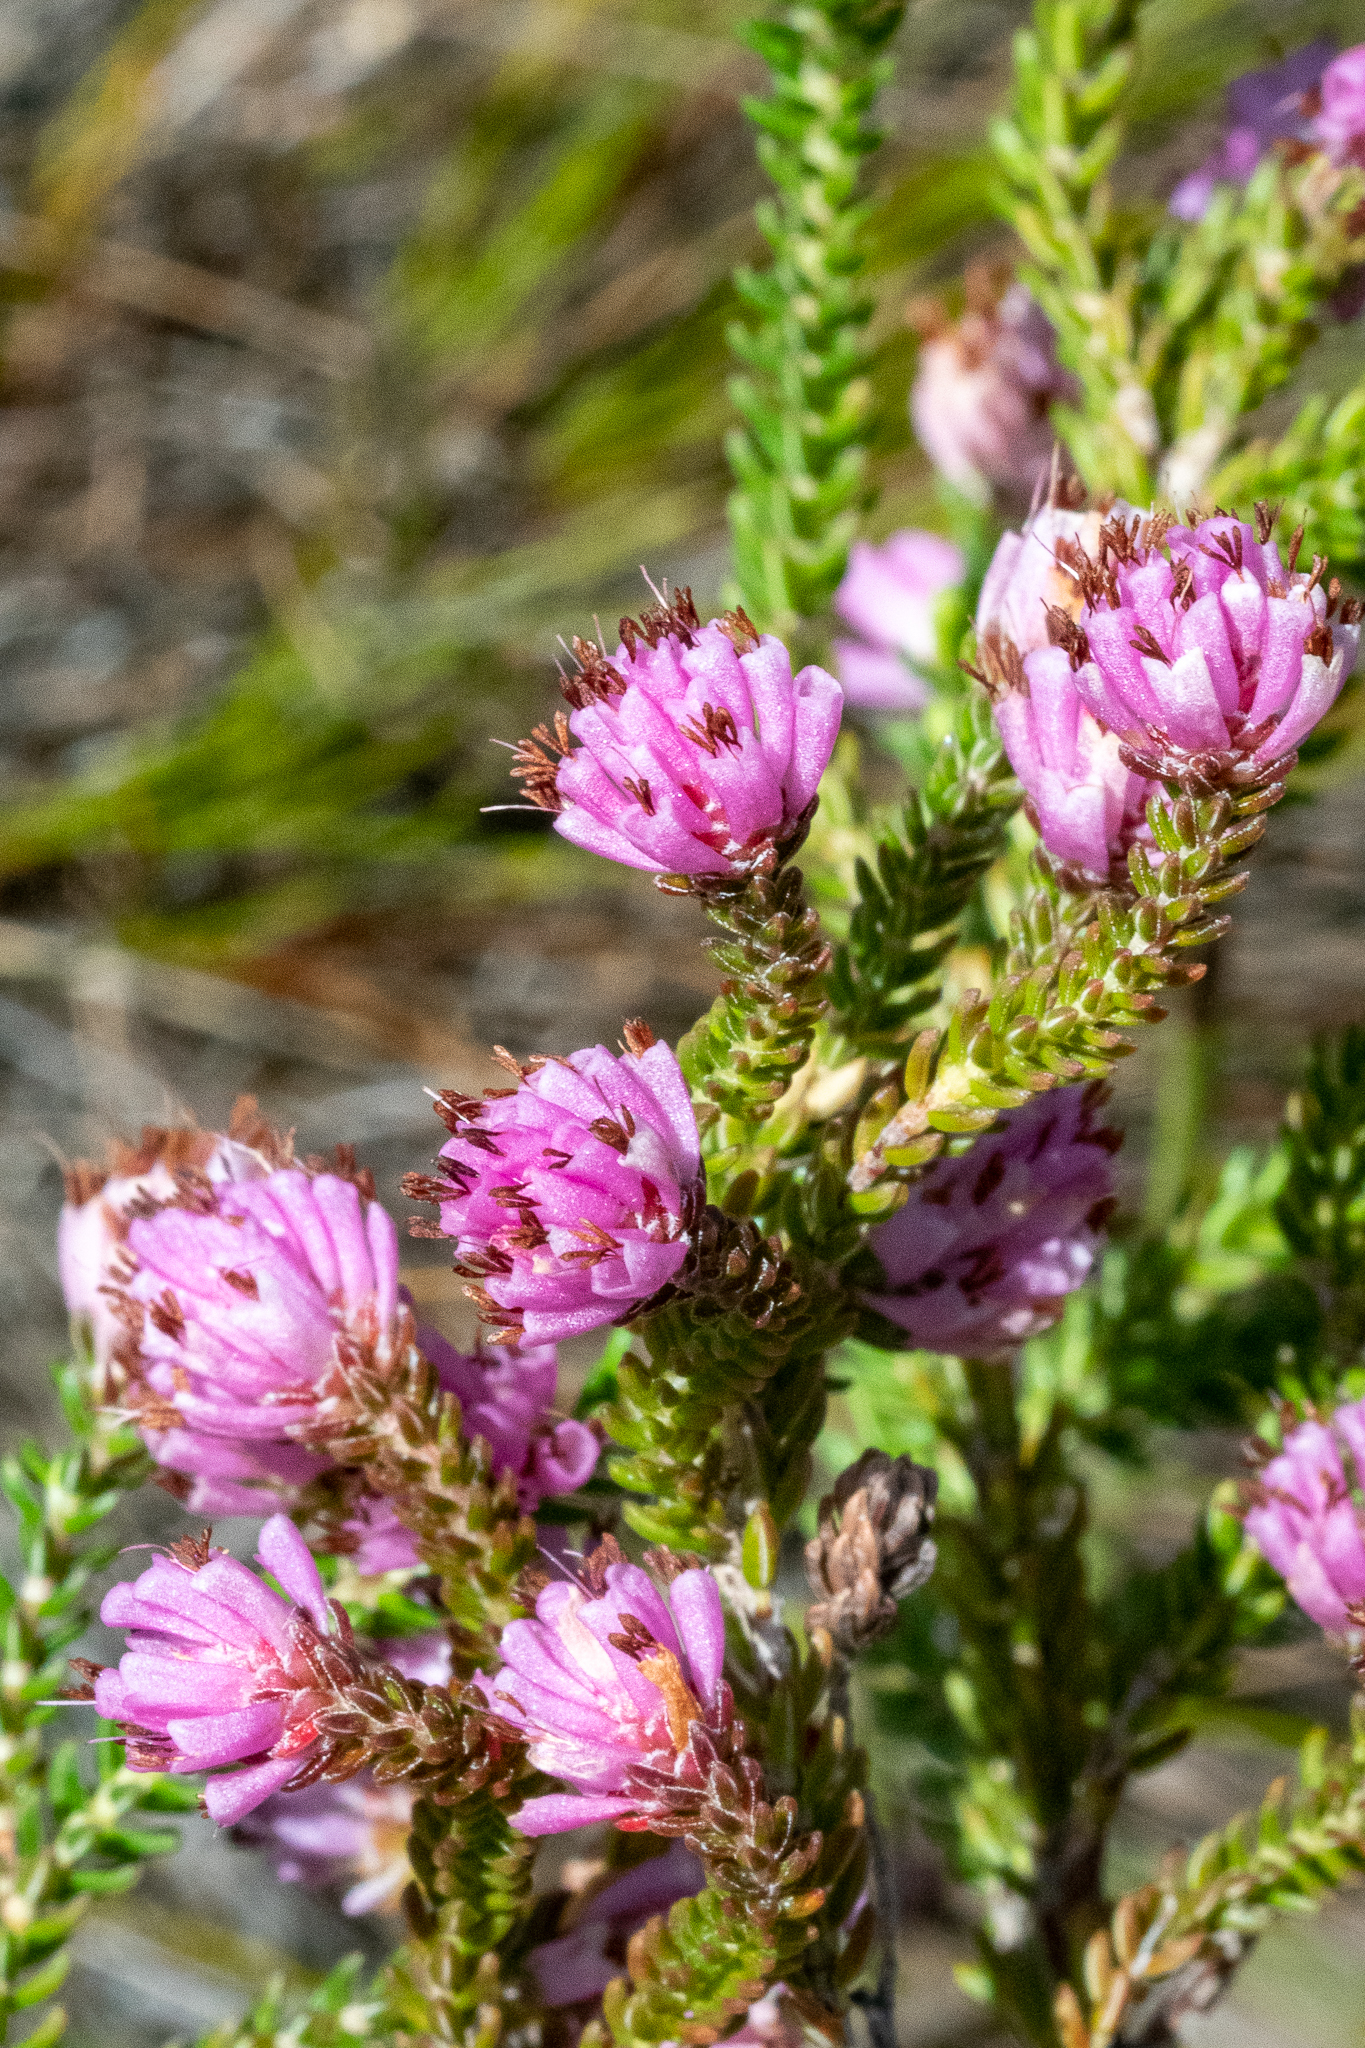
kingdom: Plantae
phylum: Tracheophyta
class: Magnoliopsida
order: Ericales
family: Ericaceae
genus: Erica
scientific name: Erica labialis
